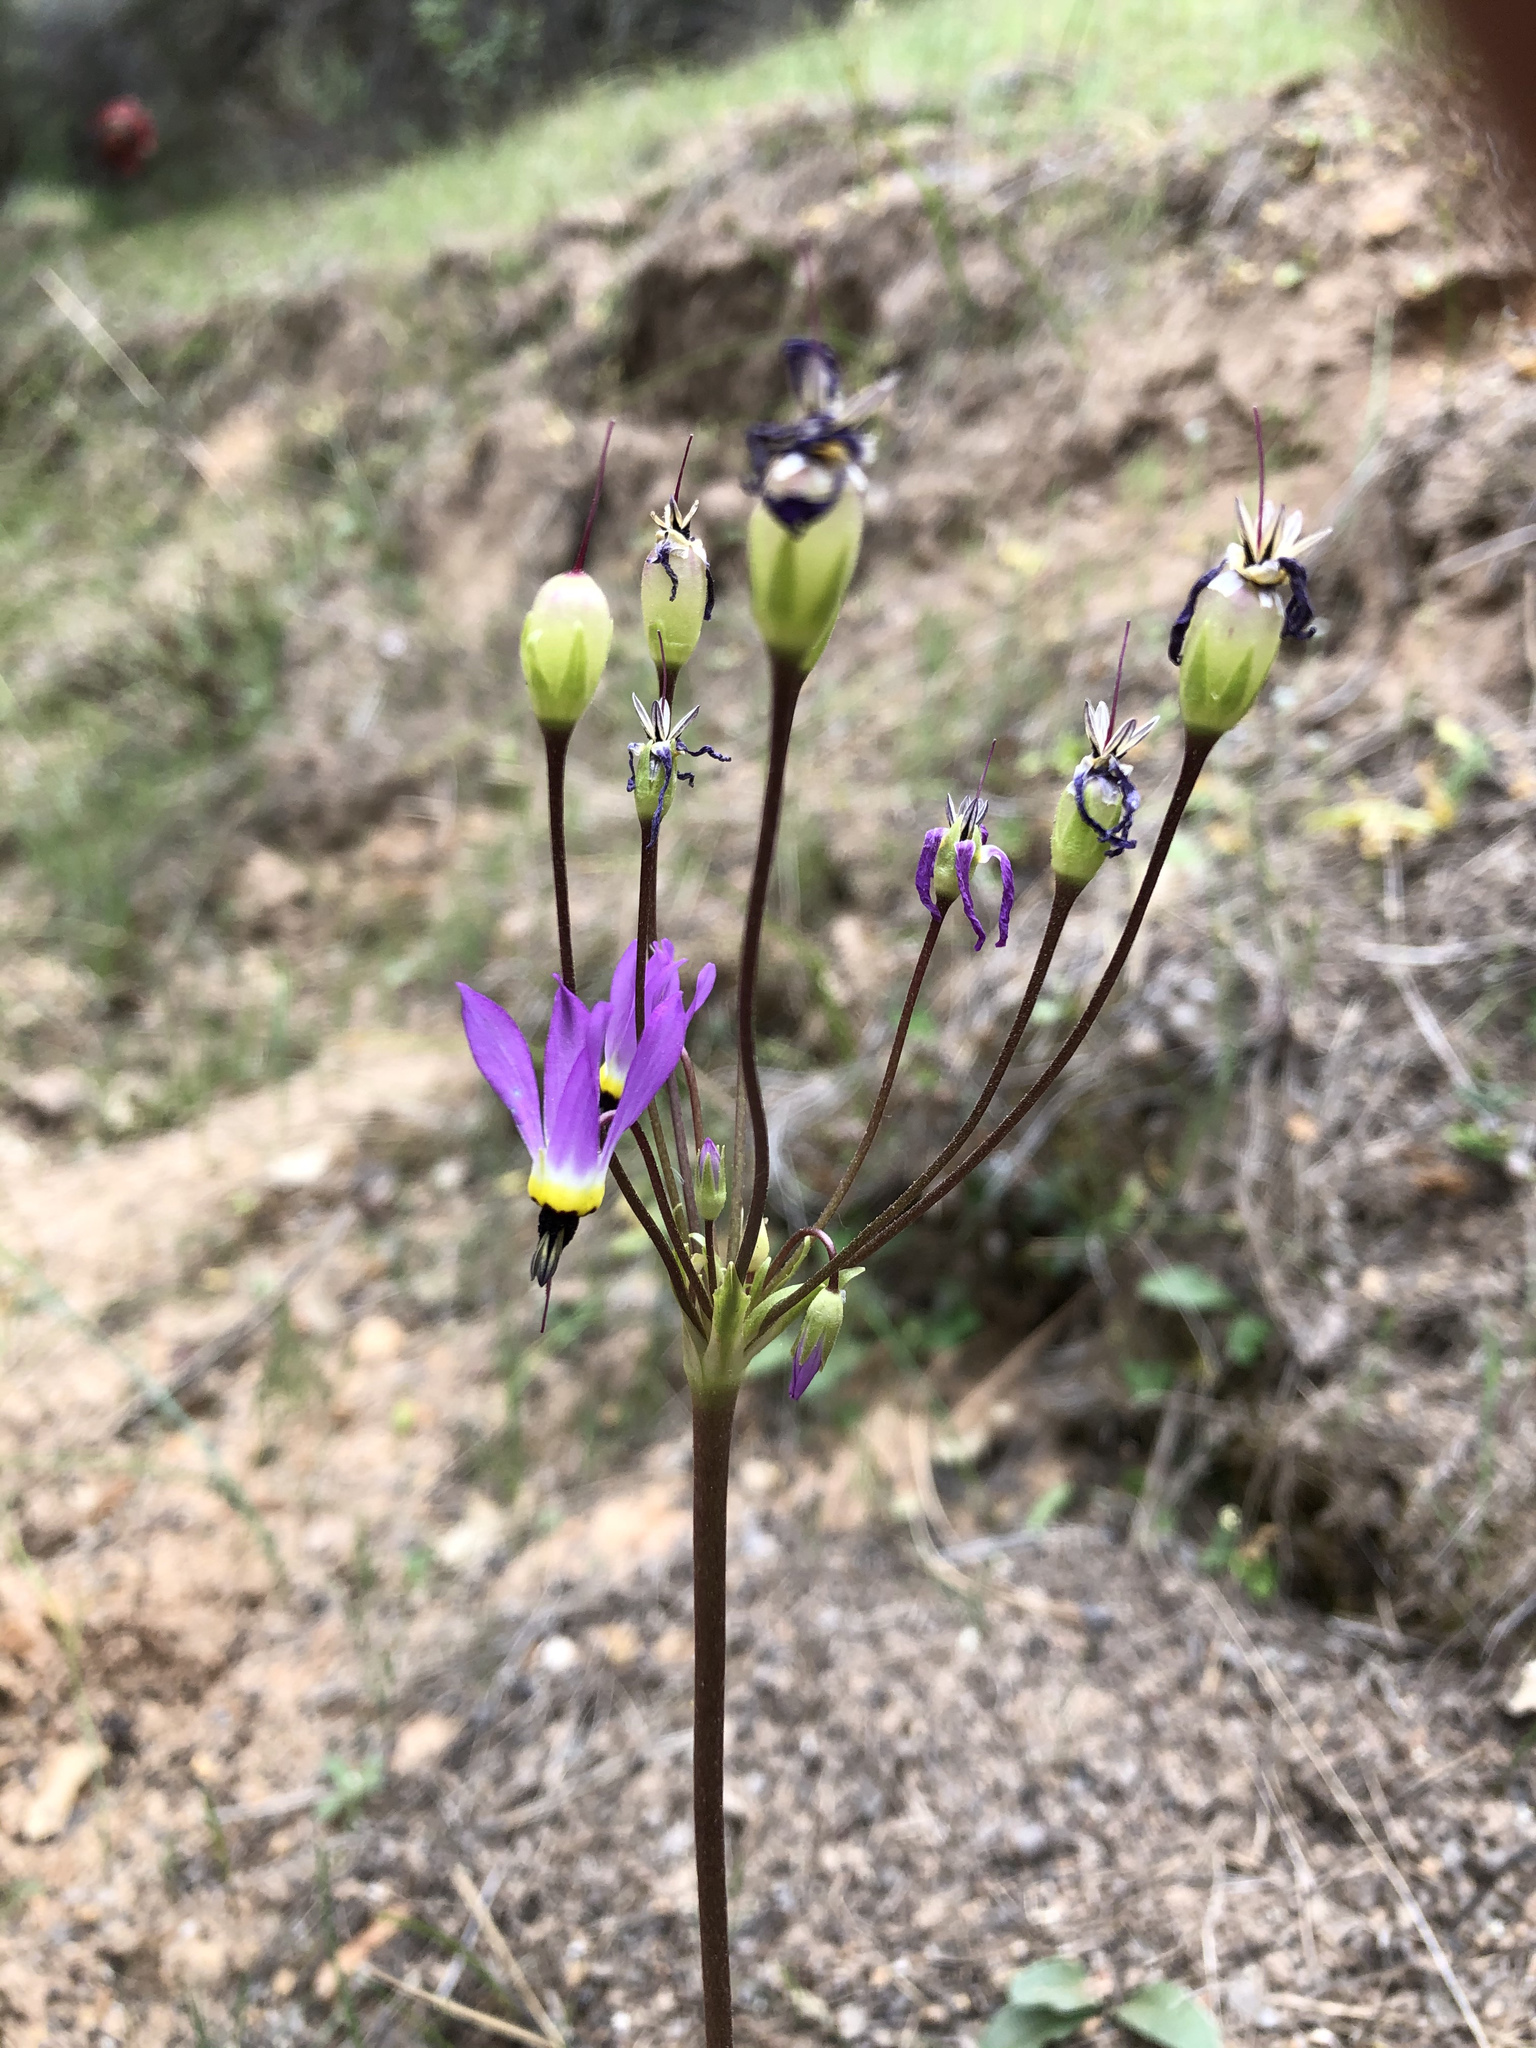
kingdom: Plantae
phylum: Tracheophyta
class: Magnoliopsida
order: Ericales
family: Primulaceae
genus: Dodecatheon
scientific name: Dodecatheon clevelandii
